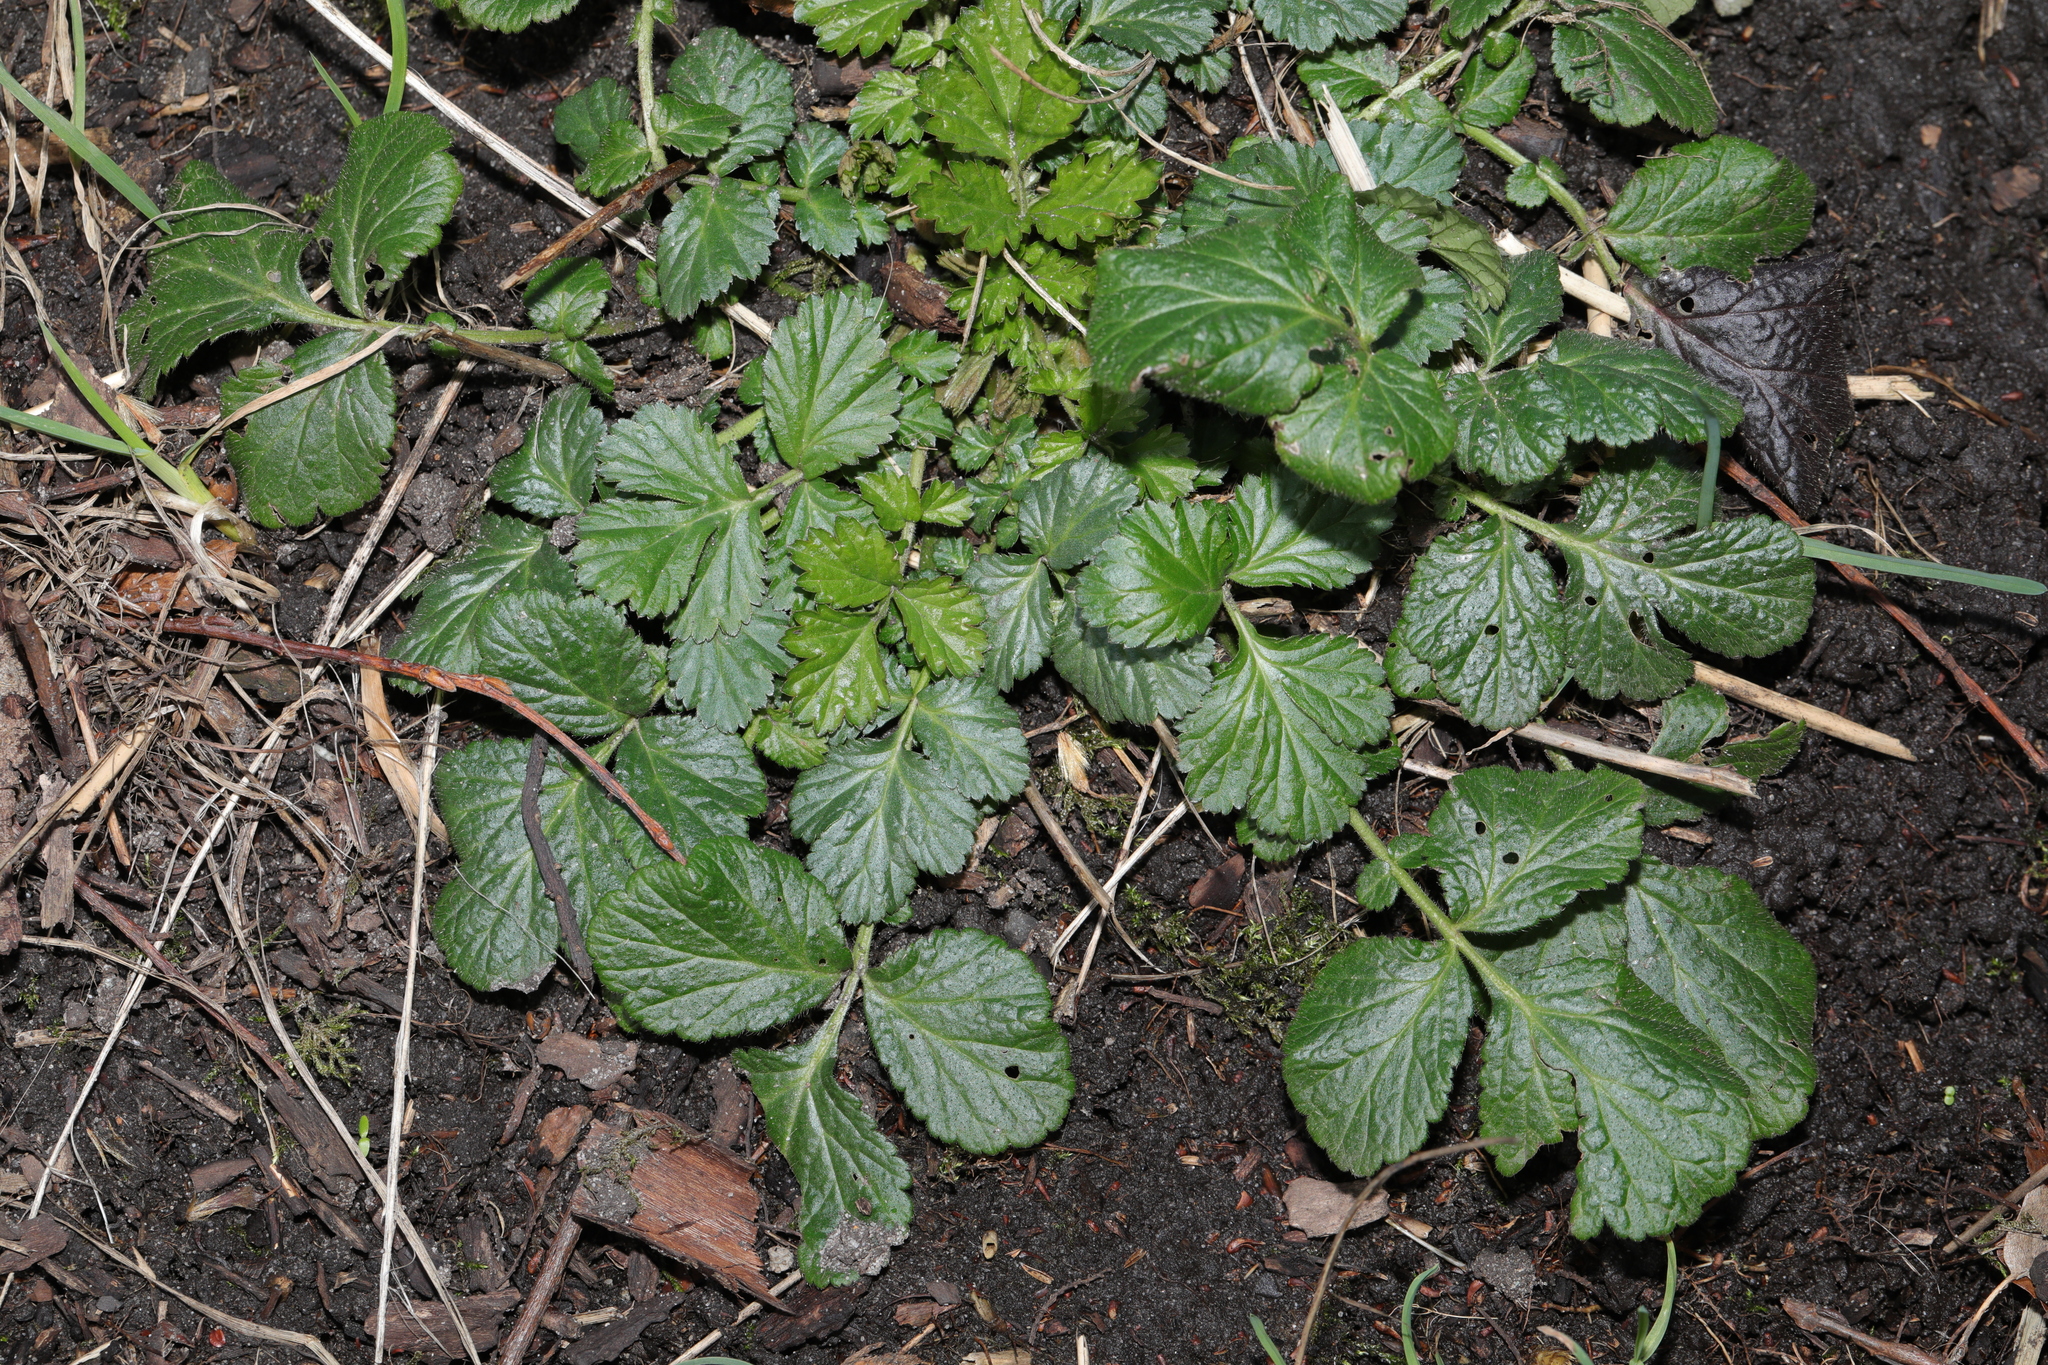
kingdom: Plantae
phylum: Tracheophyta
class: Magnoliopsida
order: Rosales
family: Rosaceae
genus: Geum
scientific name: Geum urbanum
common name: Wood avens
